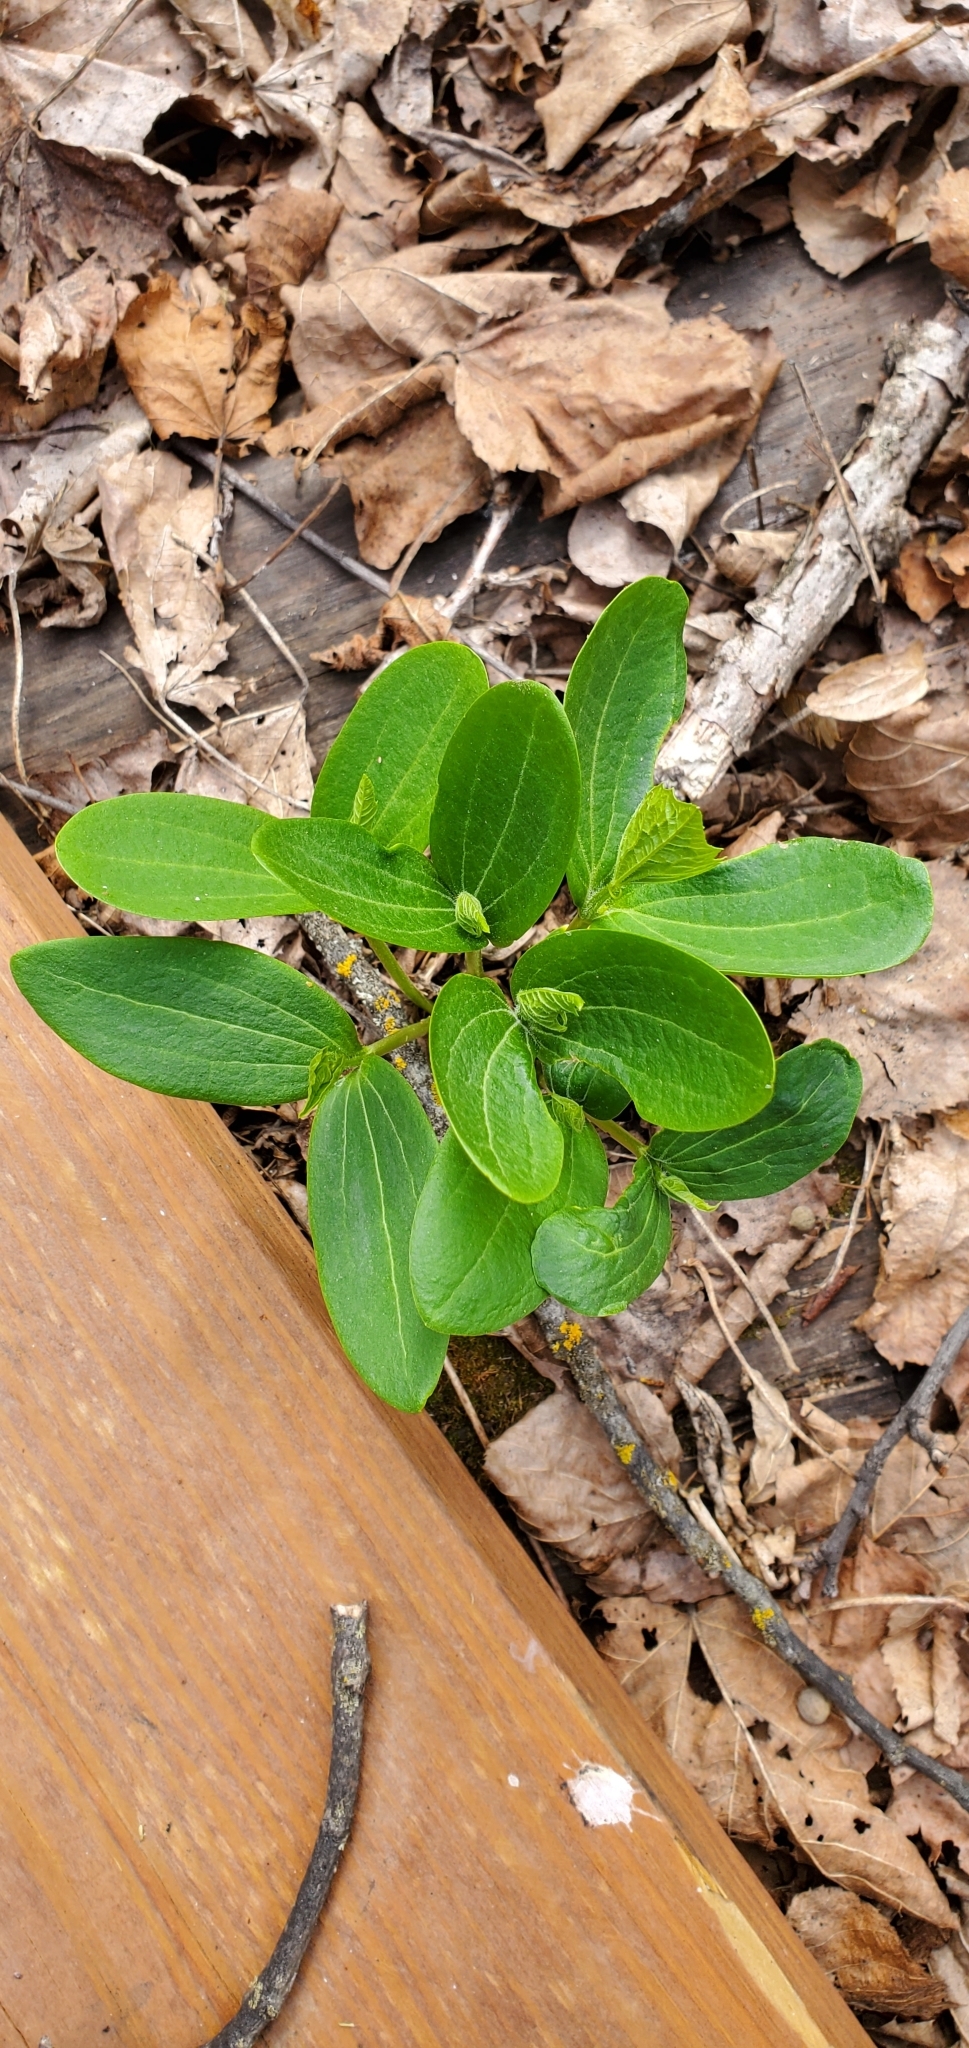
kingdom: Plantae
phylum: Tracheophyta
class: Magnoliopsida
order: Cucurbitales
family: Cucurbitaceae
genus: Echinocystis
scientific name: Echinocystis lobata
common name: Wild cucumber
